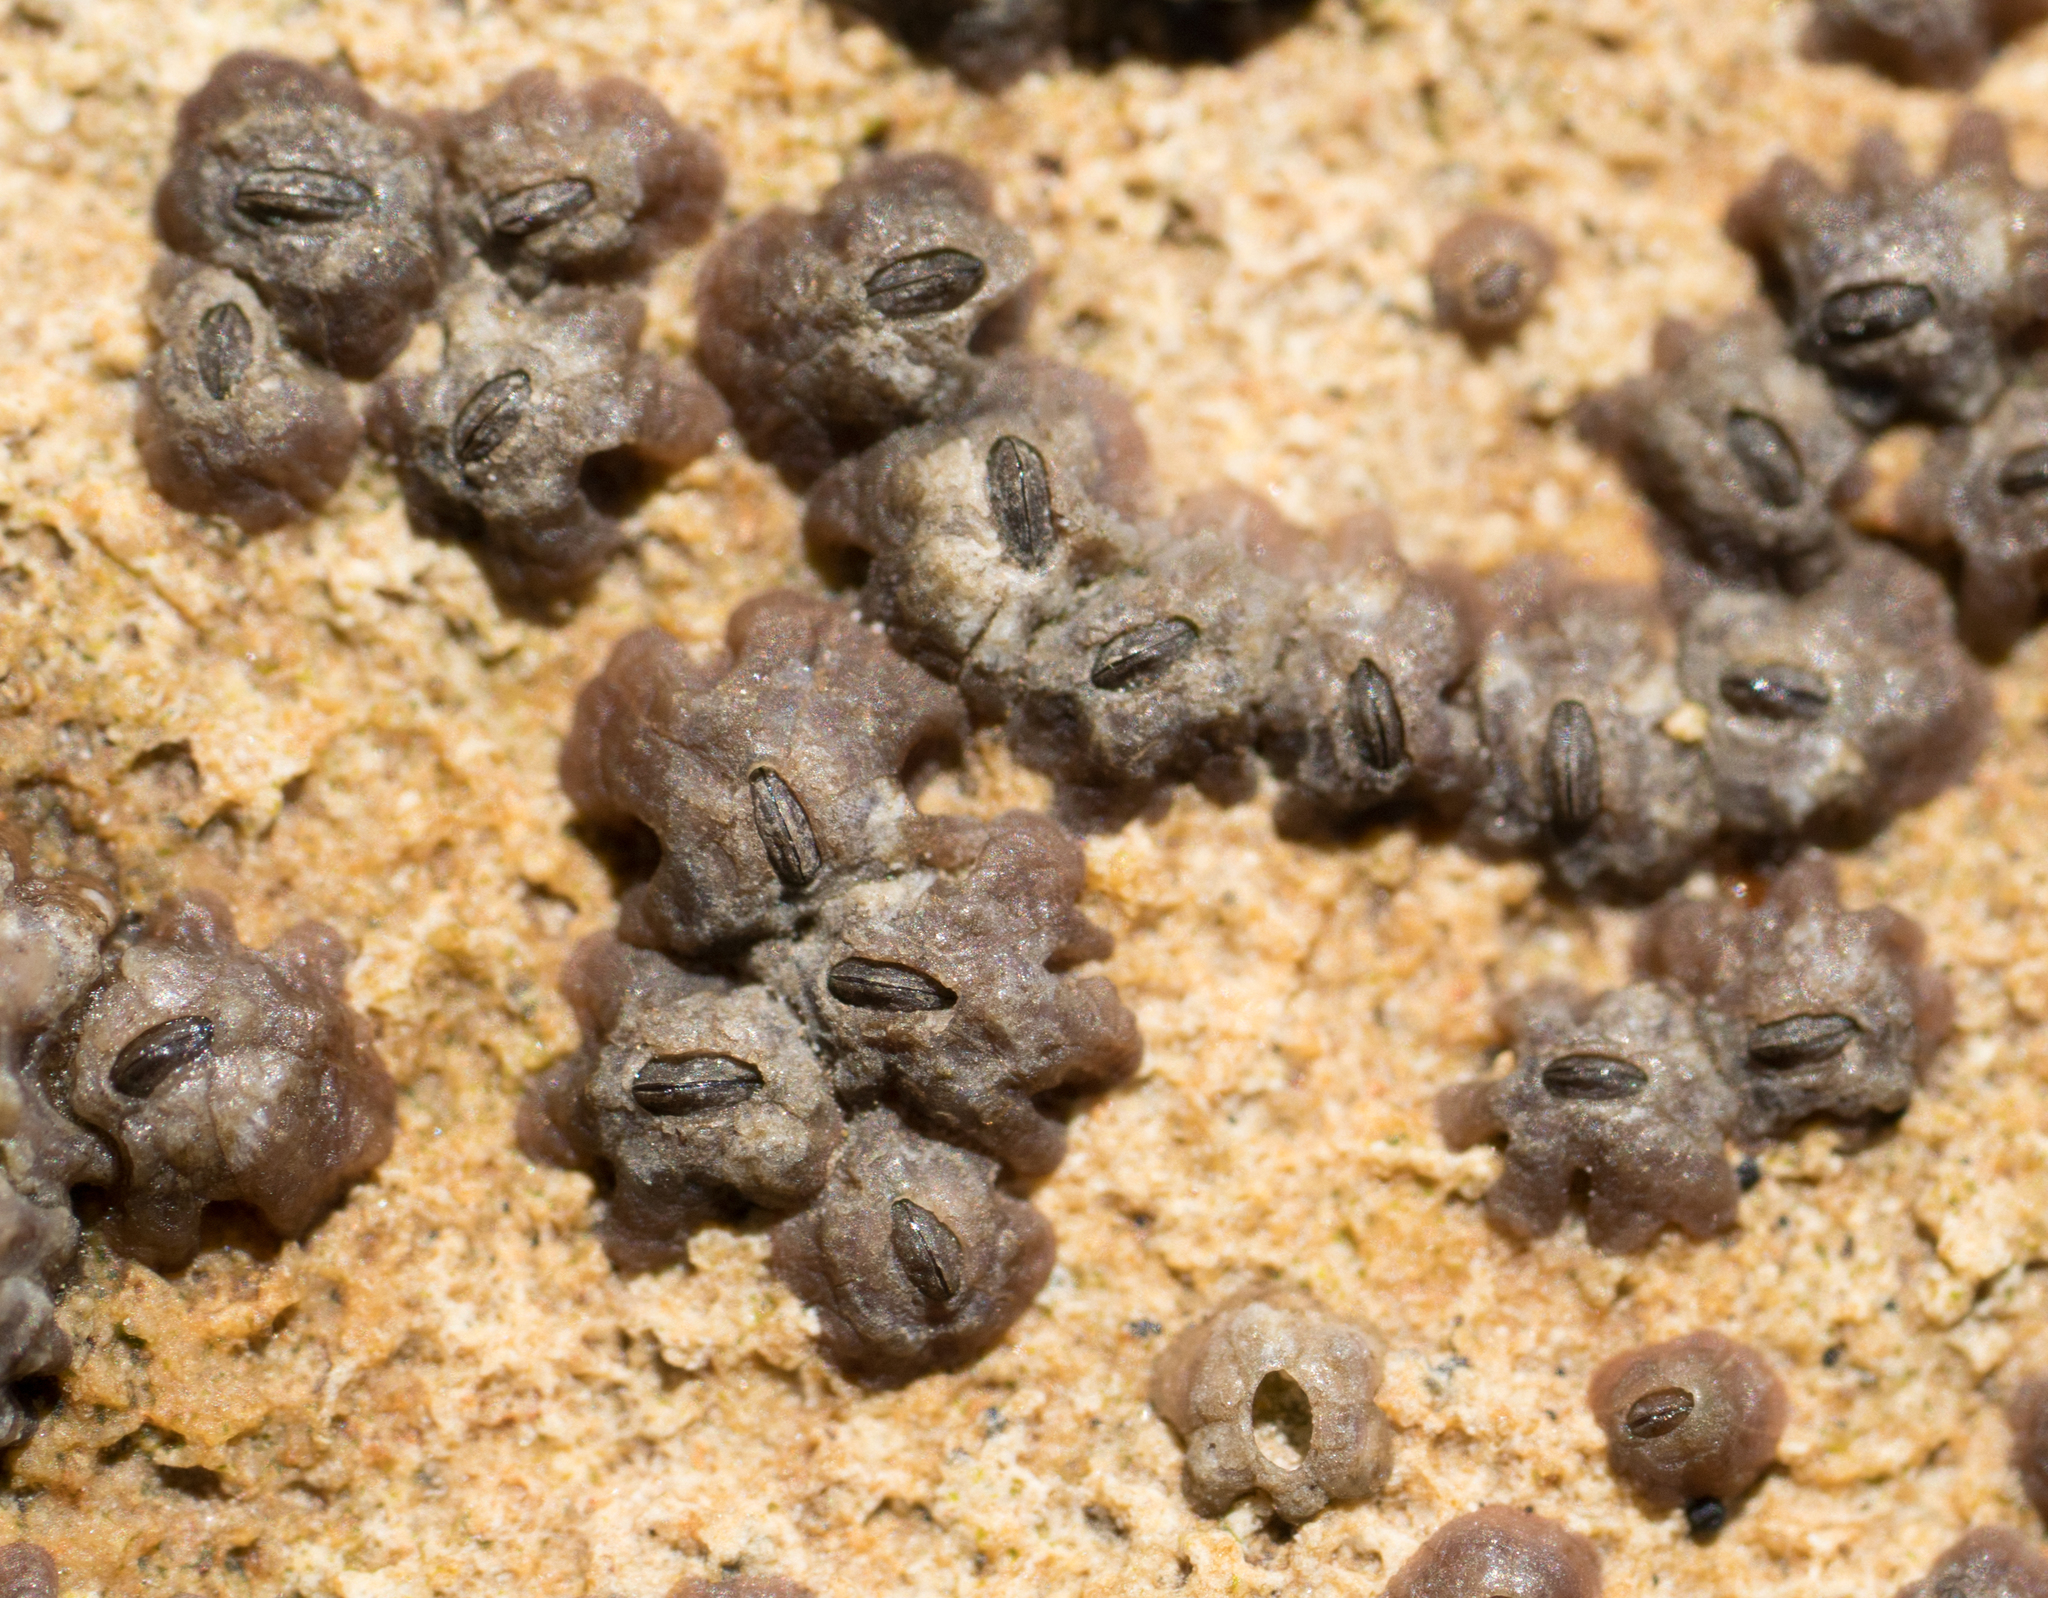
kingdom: Animalia
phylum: Arthropoda
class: Maxillopoda
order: Sessilia
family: Chthamalidae
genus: Chthamalus
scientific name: Chthamalus fissus
